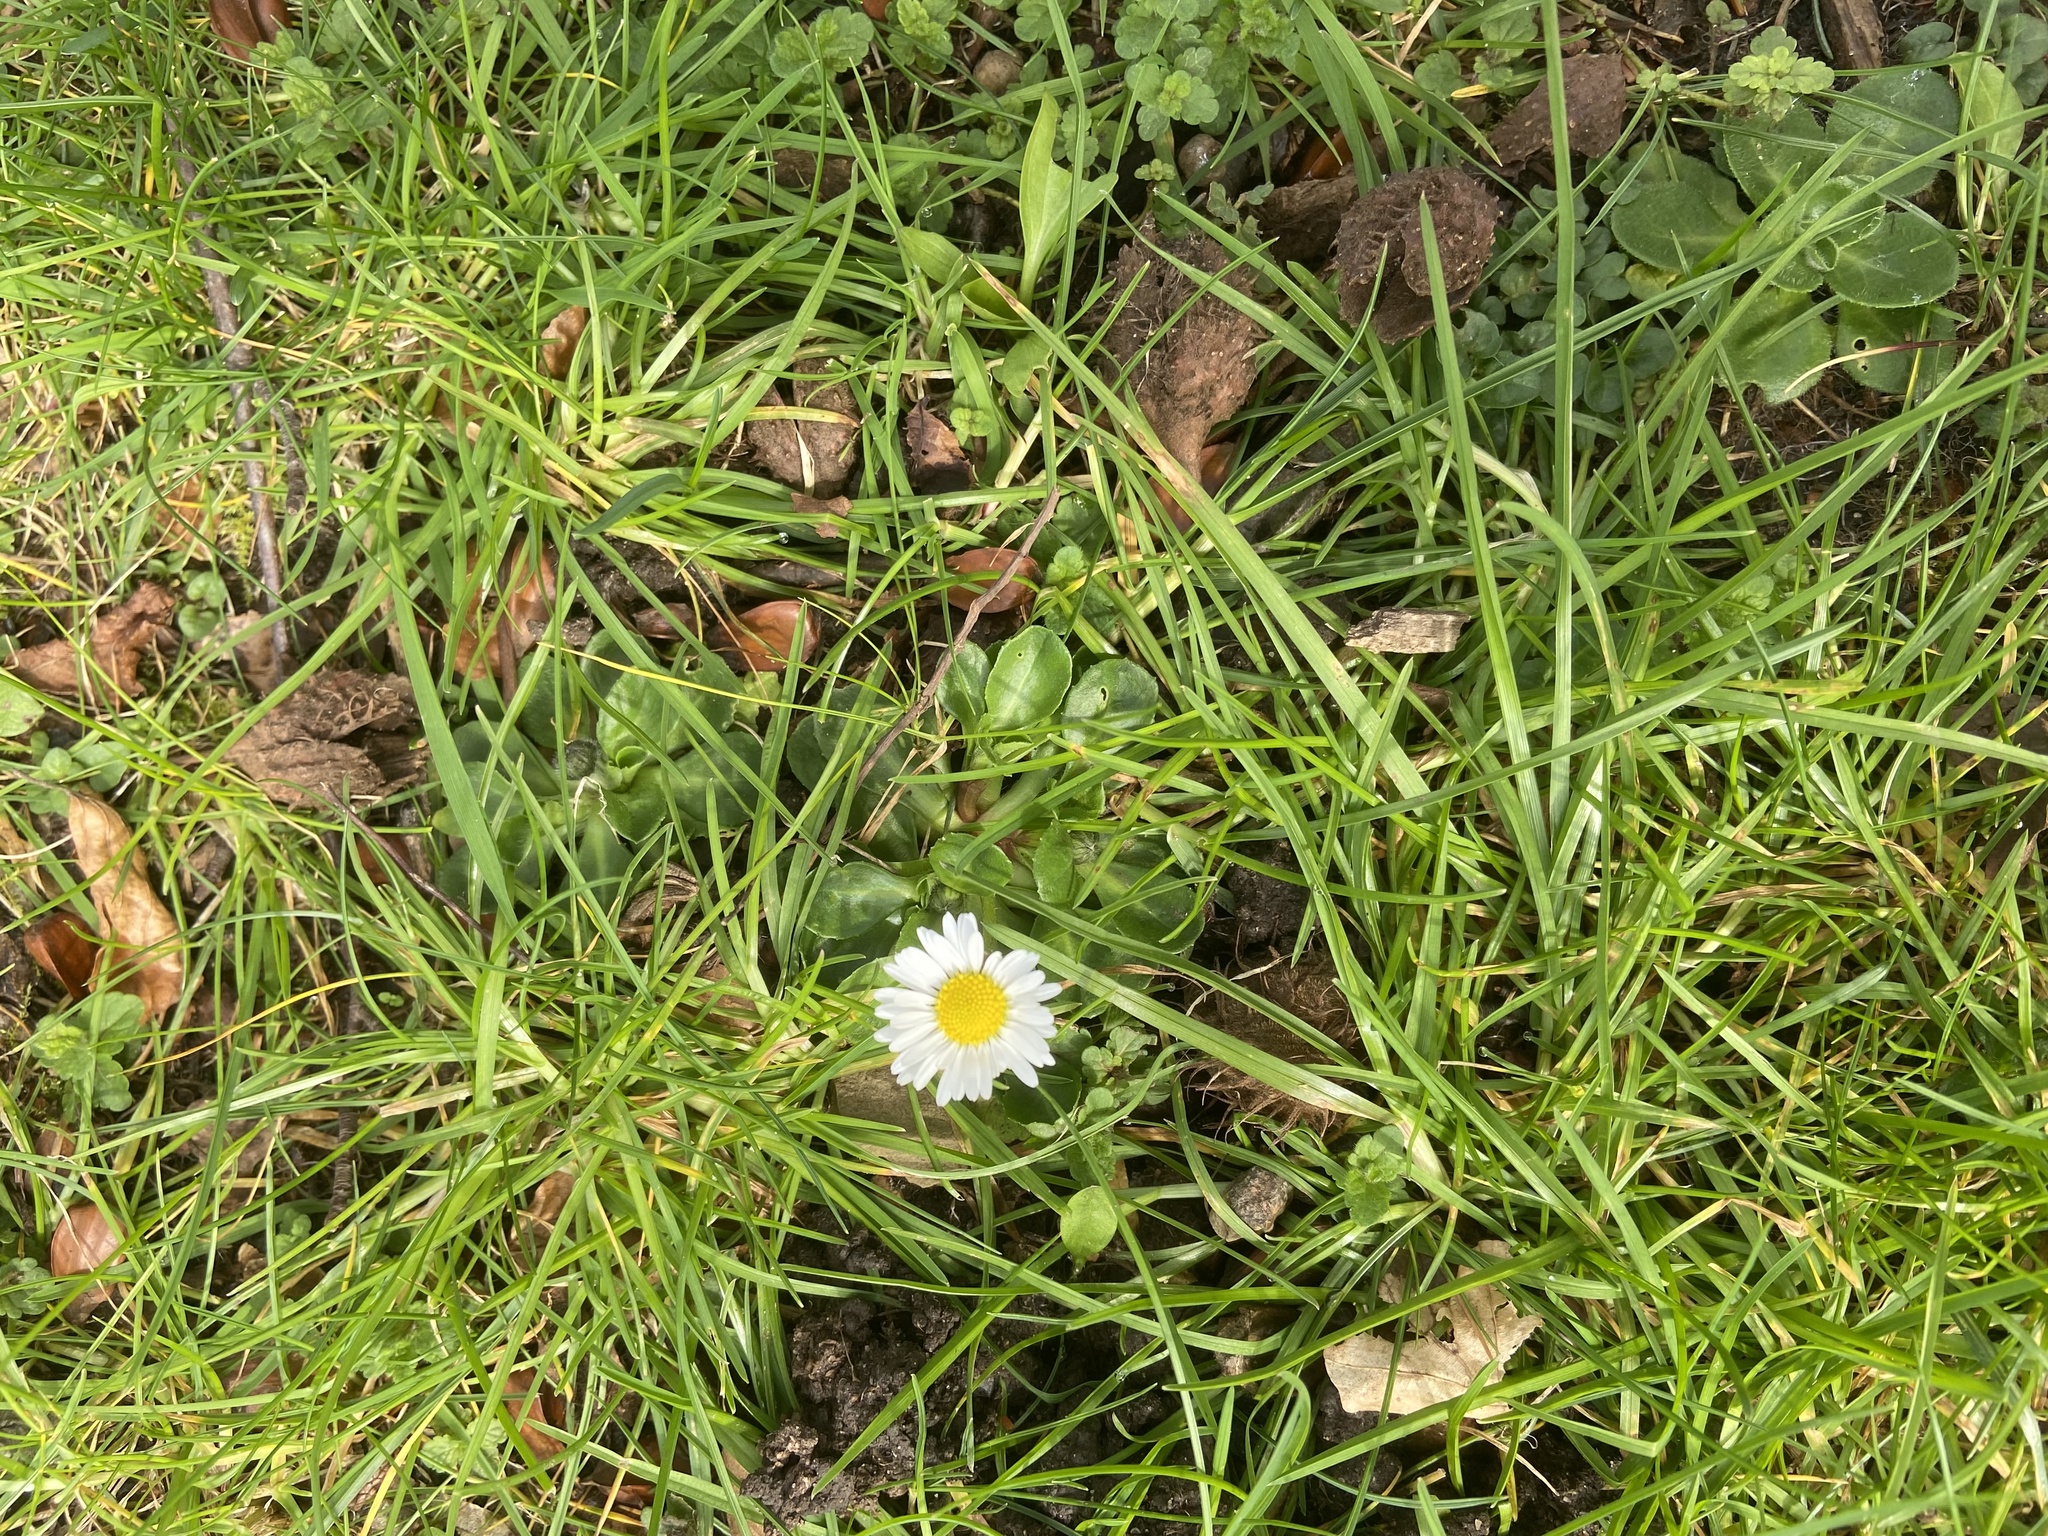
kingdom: Plantae
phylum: Tracheophyta
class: Magnoliopsida
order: Asterales
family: Asteraceae
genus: Bellis
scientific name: Bellis perennis
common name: Lawndaisy
